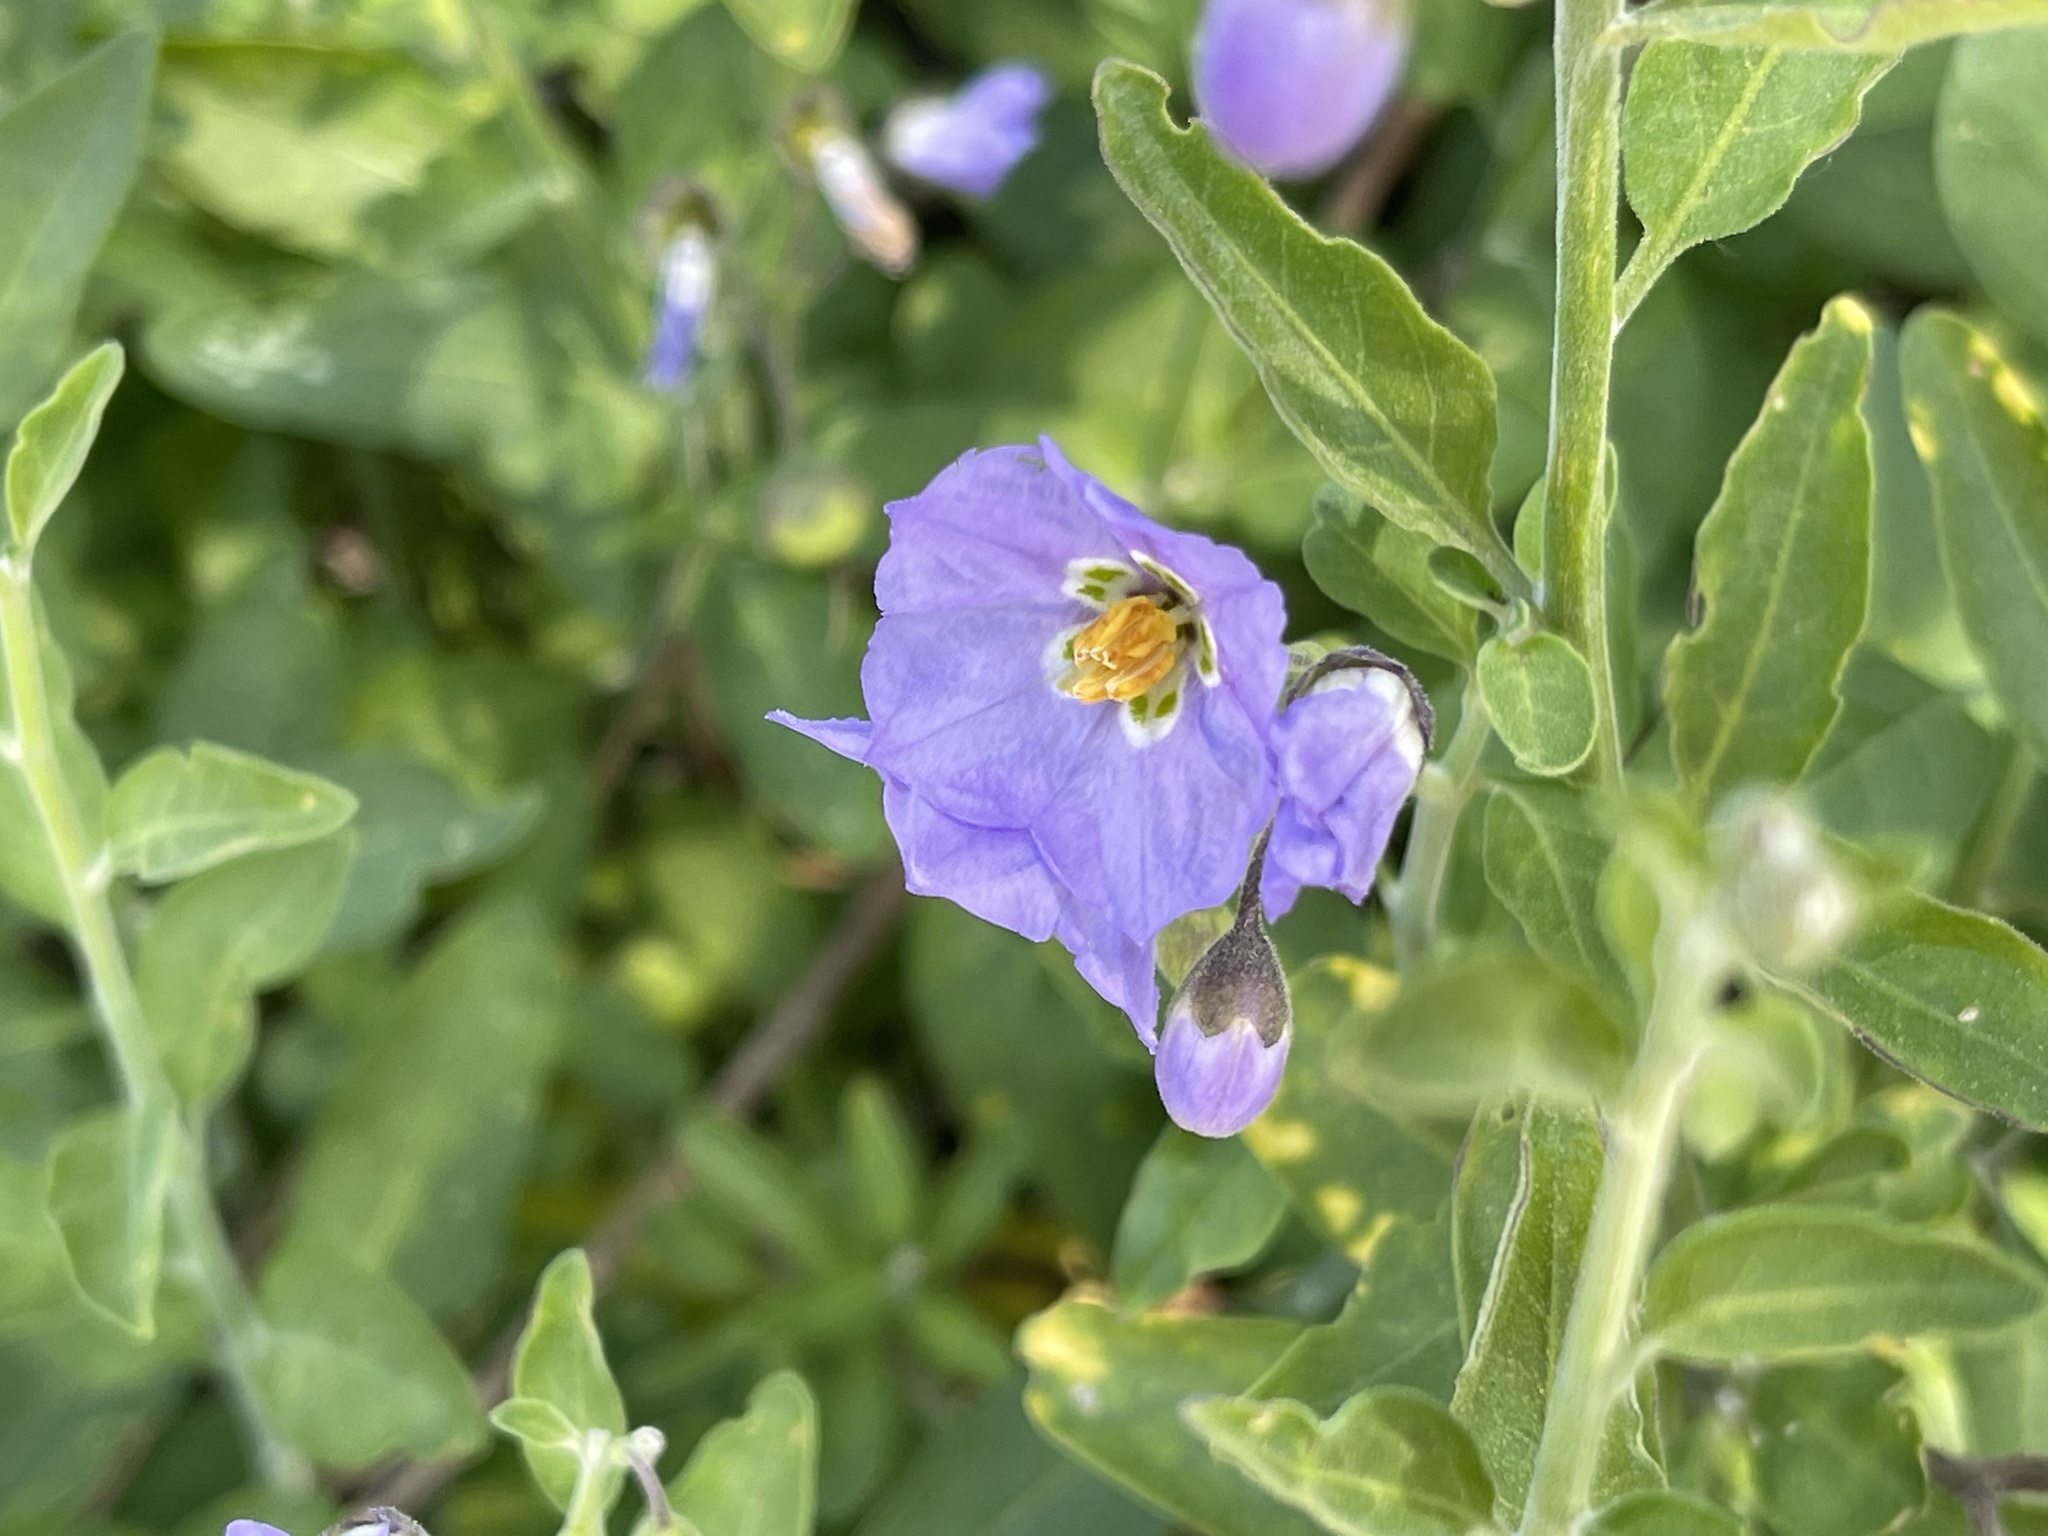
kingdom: Plantae
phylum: Tracheophyta
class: Magnoliopsida
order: Solanales
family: Solanaceae
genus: Solanum
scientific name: Solanum umbelliferum
